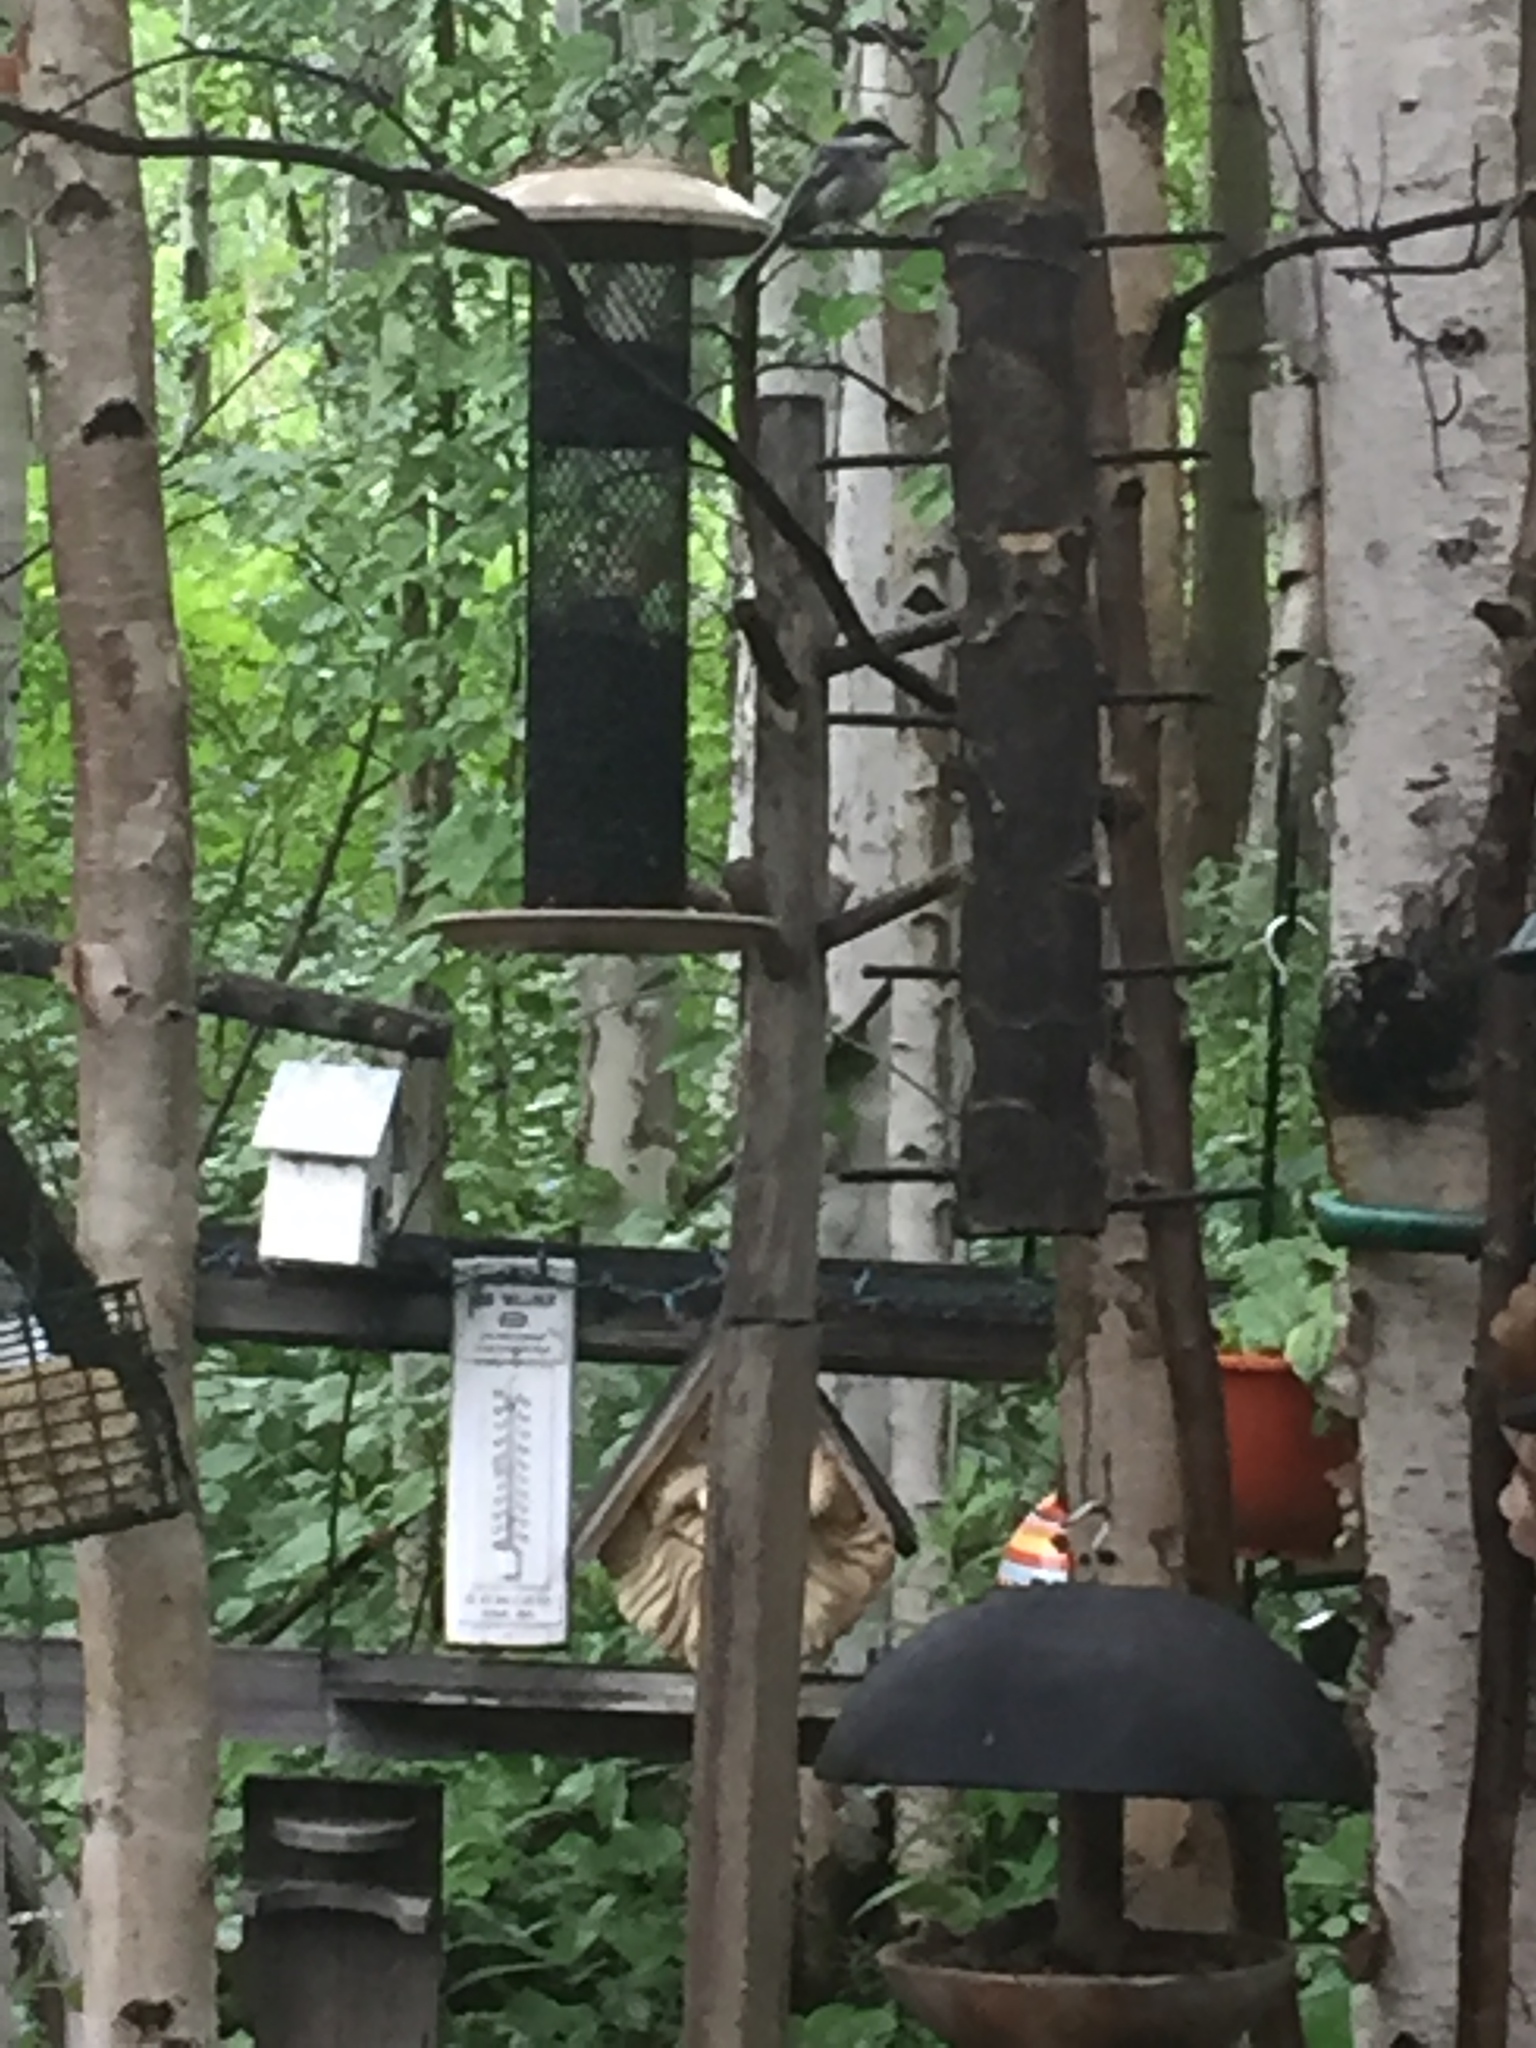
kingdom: Animalia
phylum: Chordata
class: Aves
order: Passeriformes
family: Paridae
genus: Poecile
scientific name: Poecile atricapillus
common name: Black-capped chickadee
